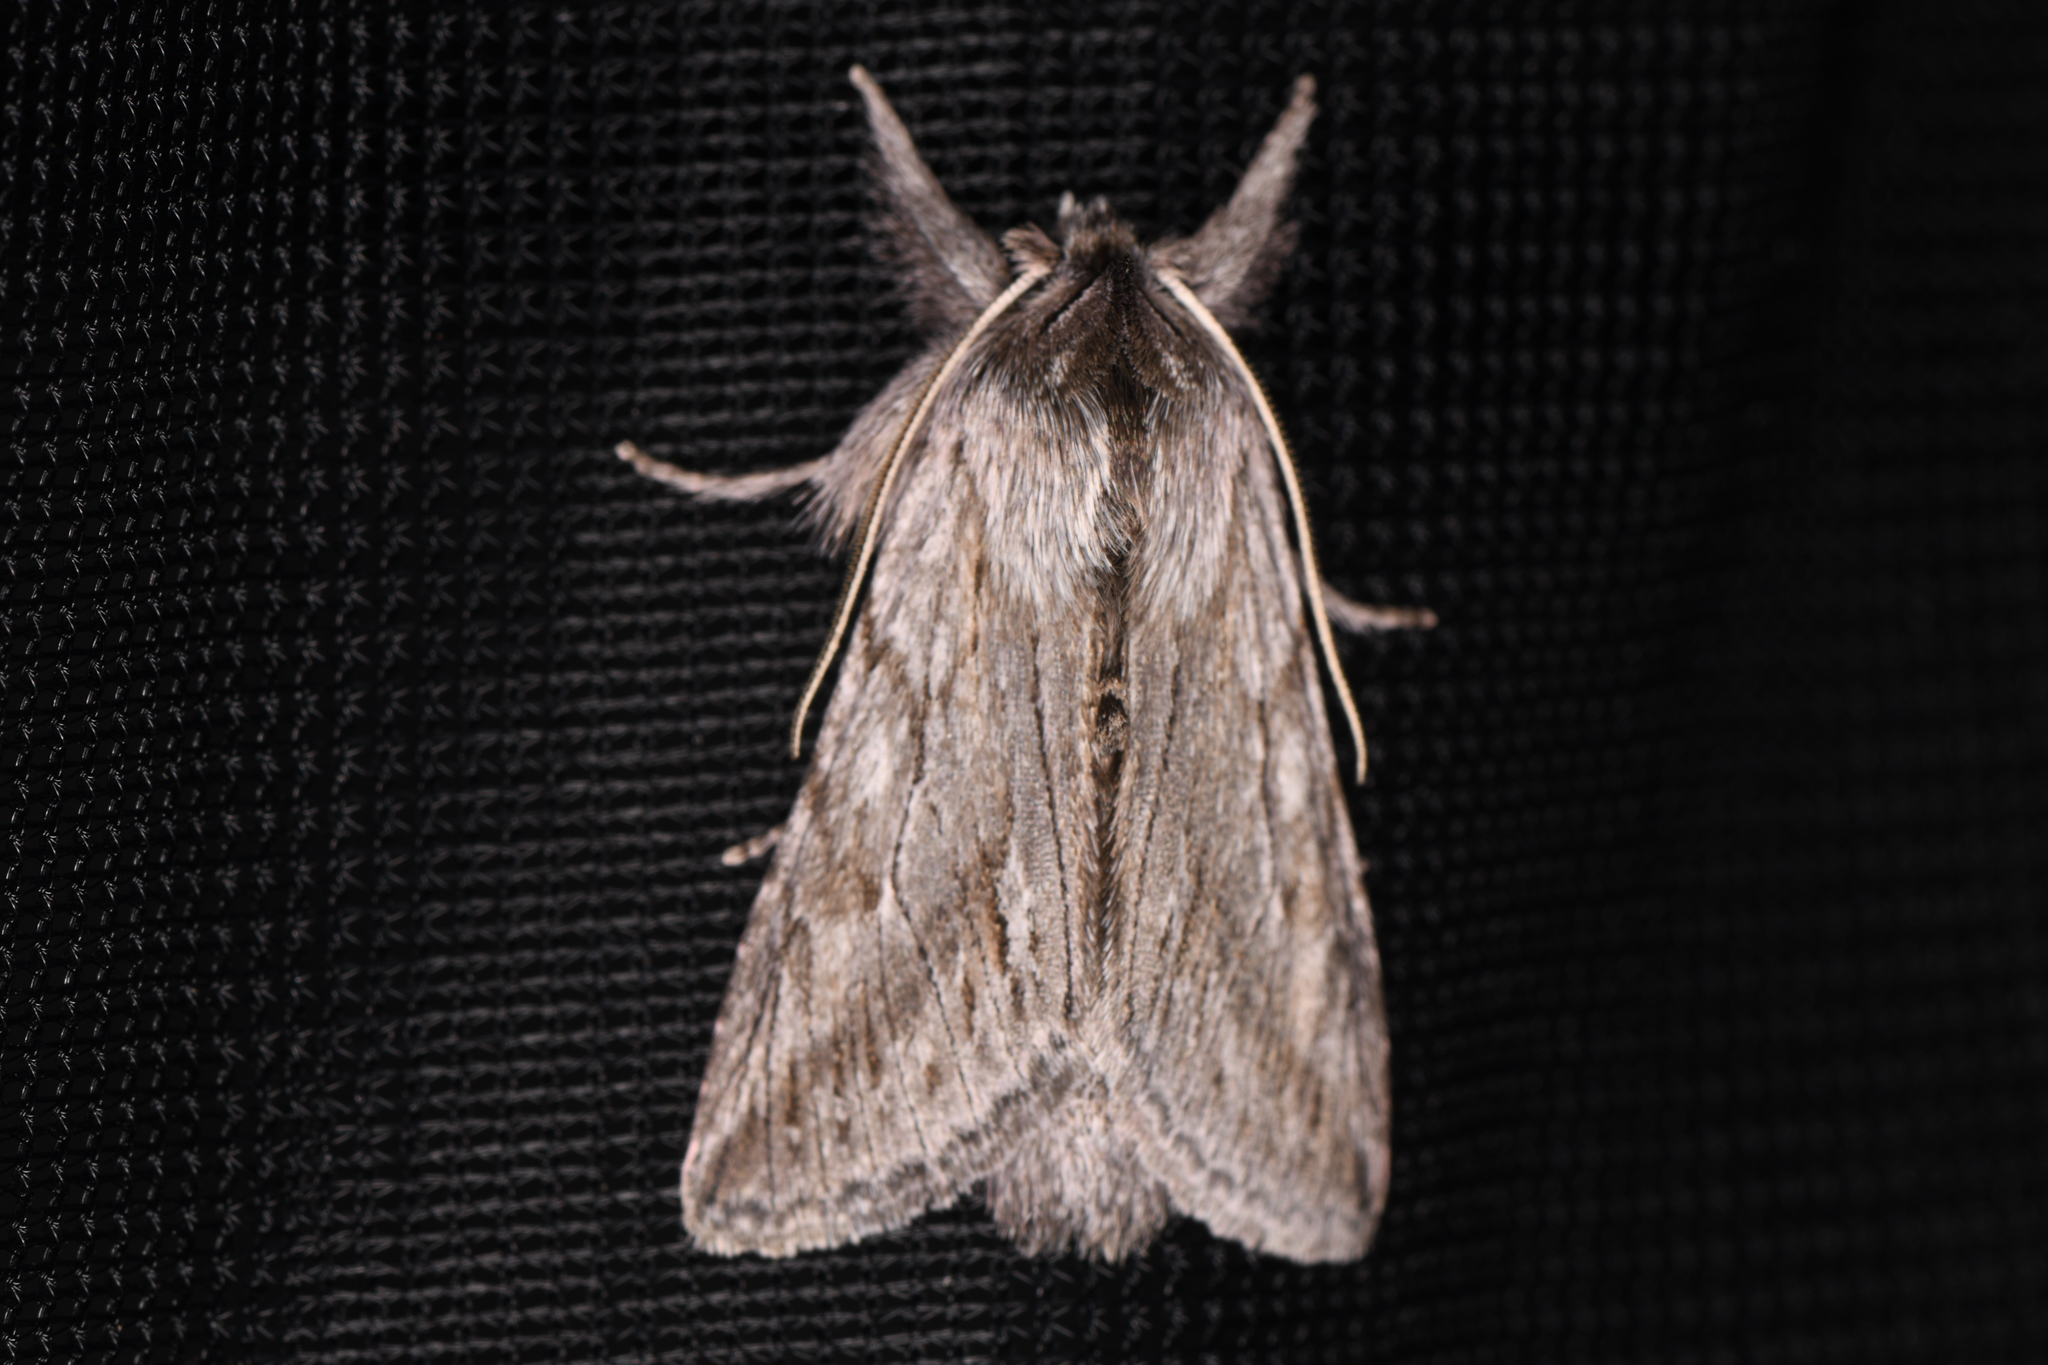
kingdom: Animalia
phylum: Arthropoda
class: Insecta
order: Lepidoptera
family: Noctuidae
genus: Pleromelloida
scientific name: Pleromelloida cinerea
